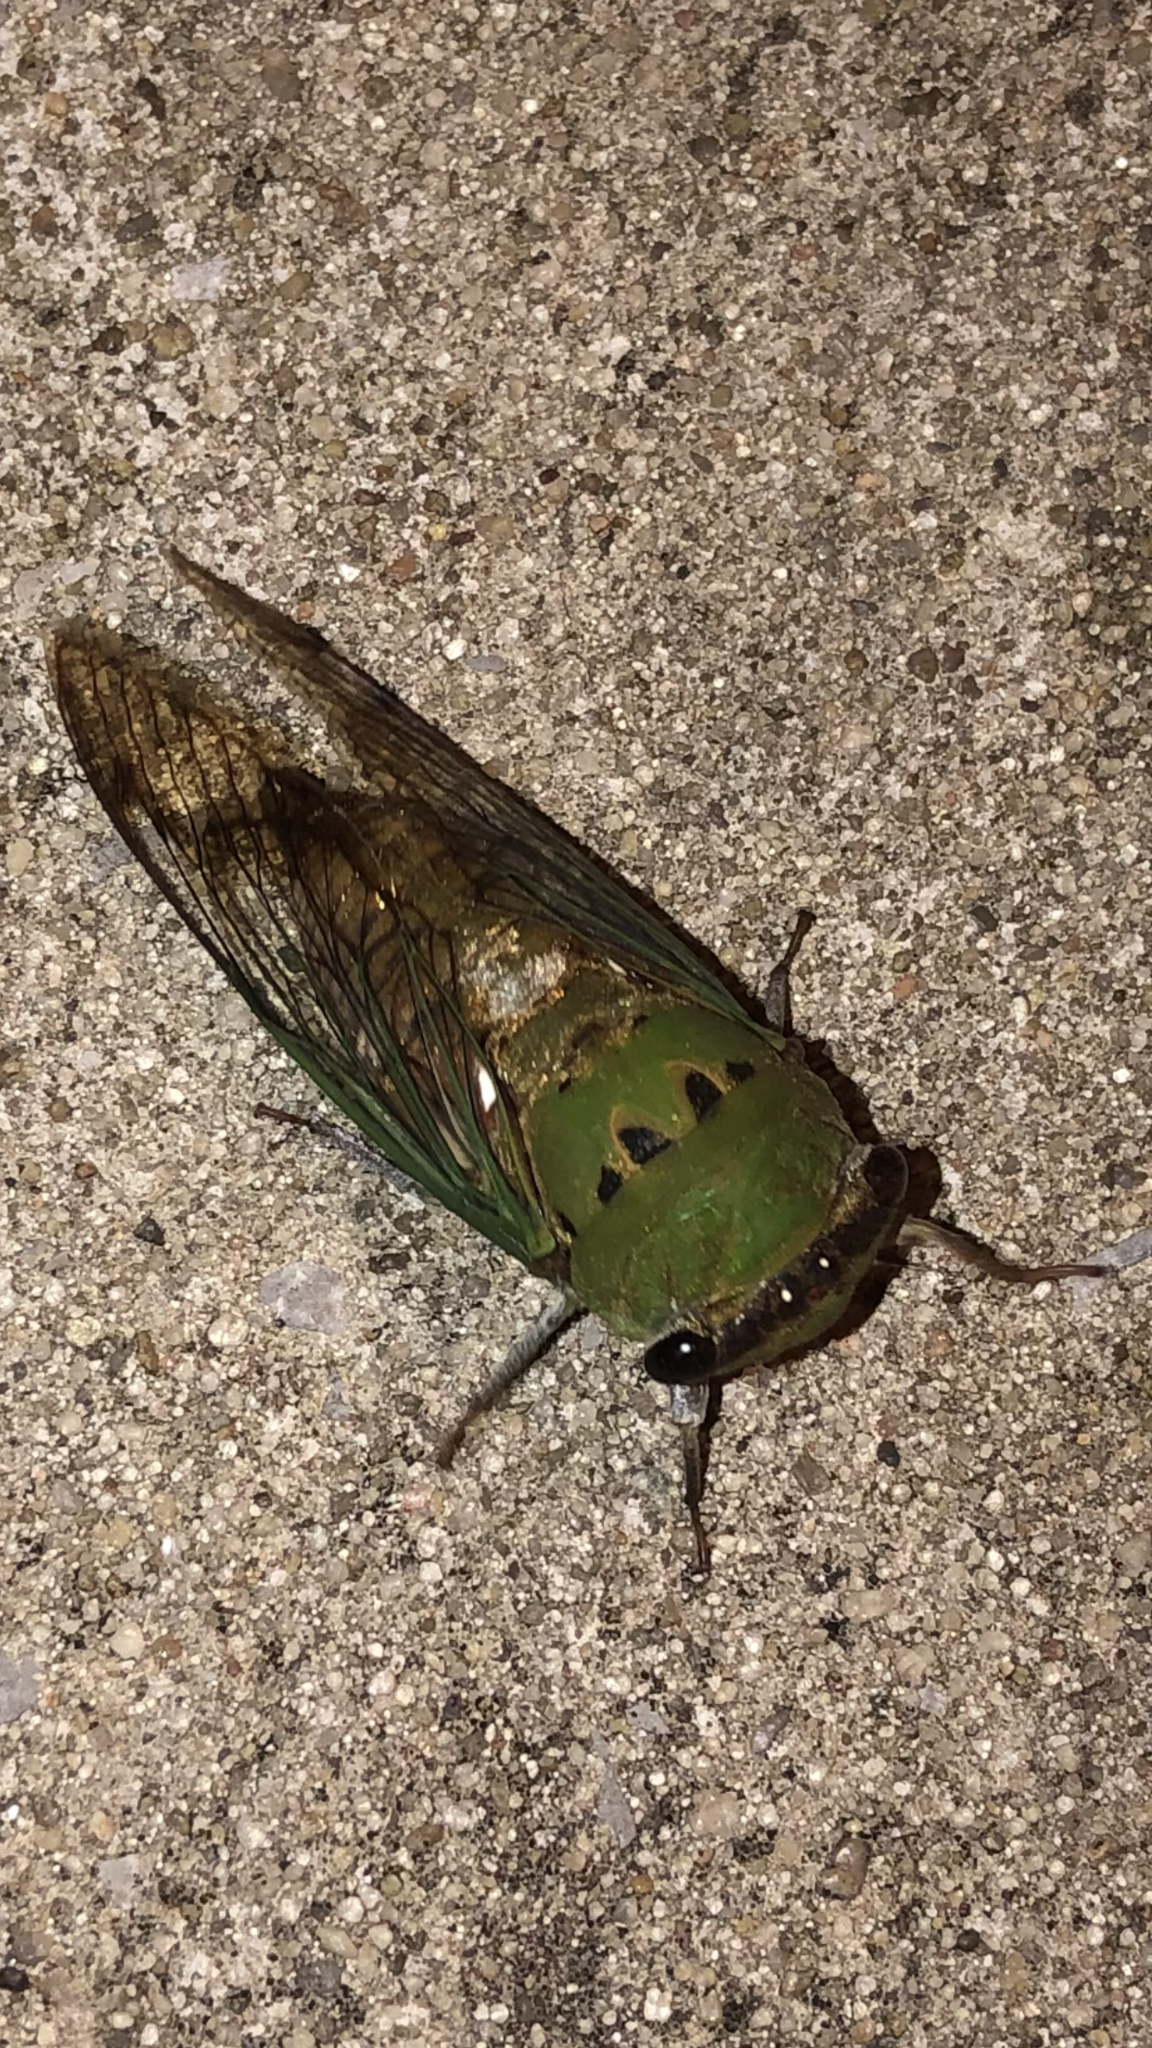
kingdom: Animalia
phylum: Arthropoda
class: Insecta
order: Hemiptera
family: Cicadidae
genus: Neotibicen
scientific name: Neotibicen superbus
